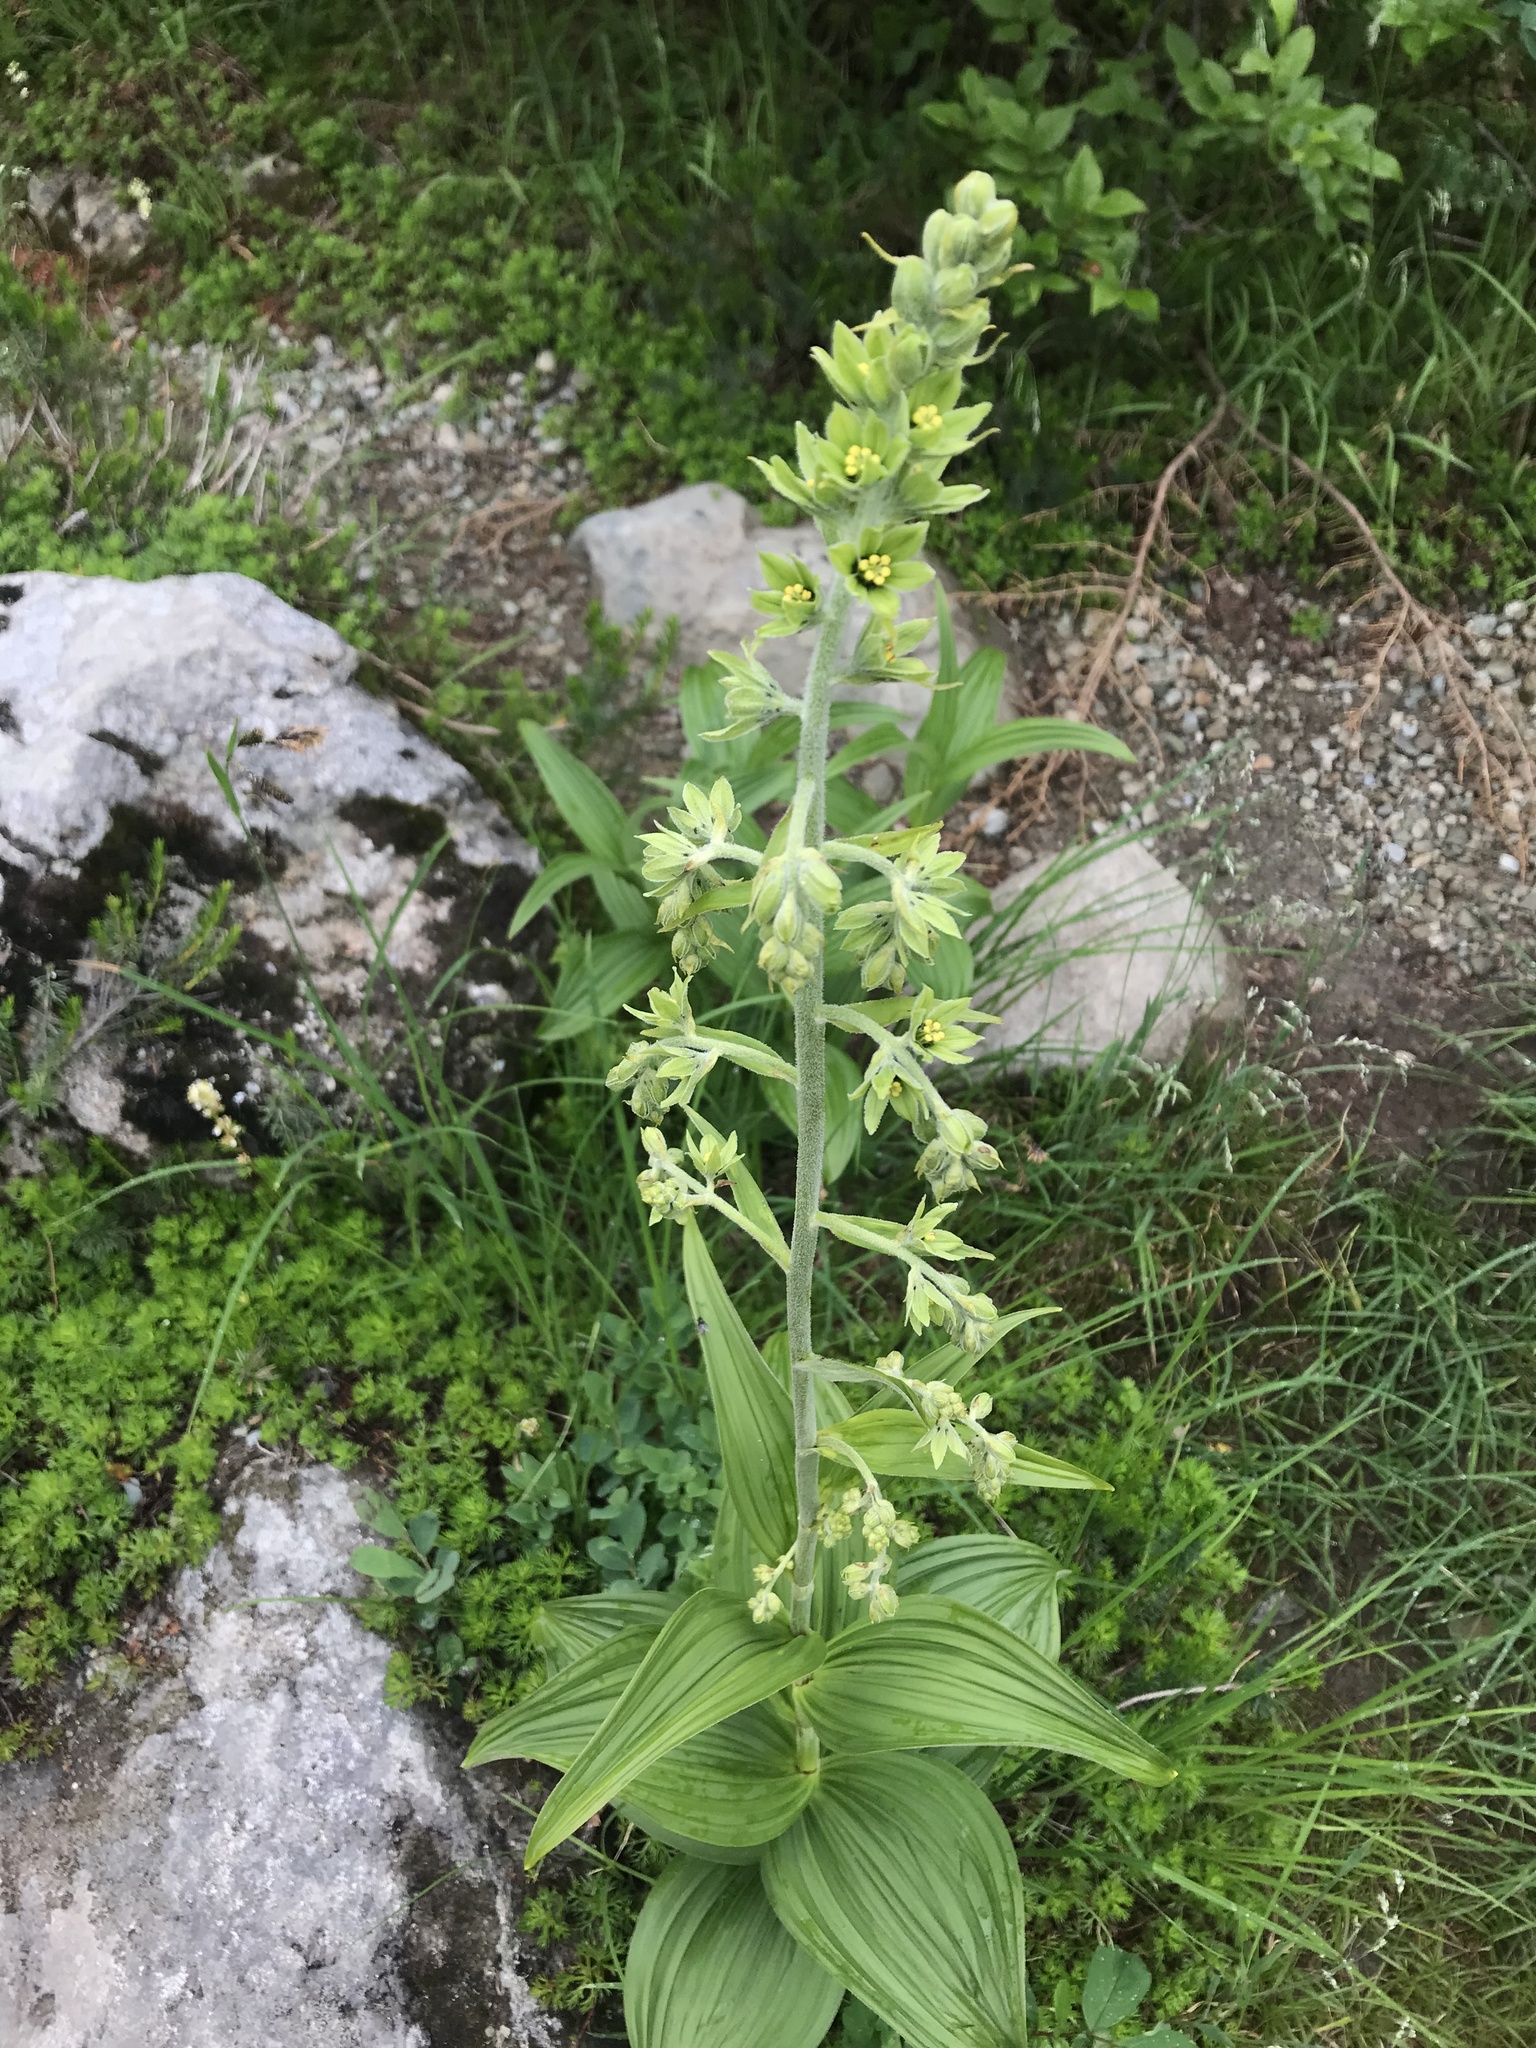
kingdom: Plantae
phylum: Tracheophyta
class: Liliopsida
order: Liliales
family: Melanthiaceae
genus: Veratrum
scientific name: Veratrum viride
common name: American false hellebore
